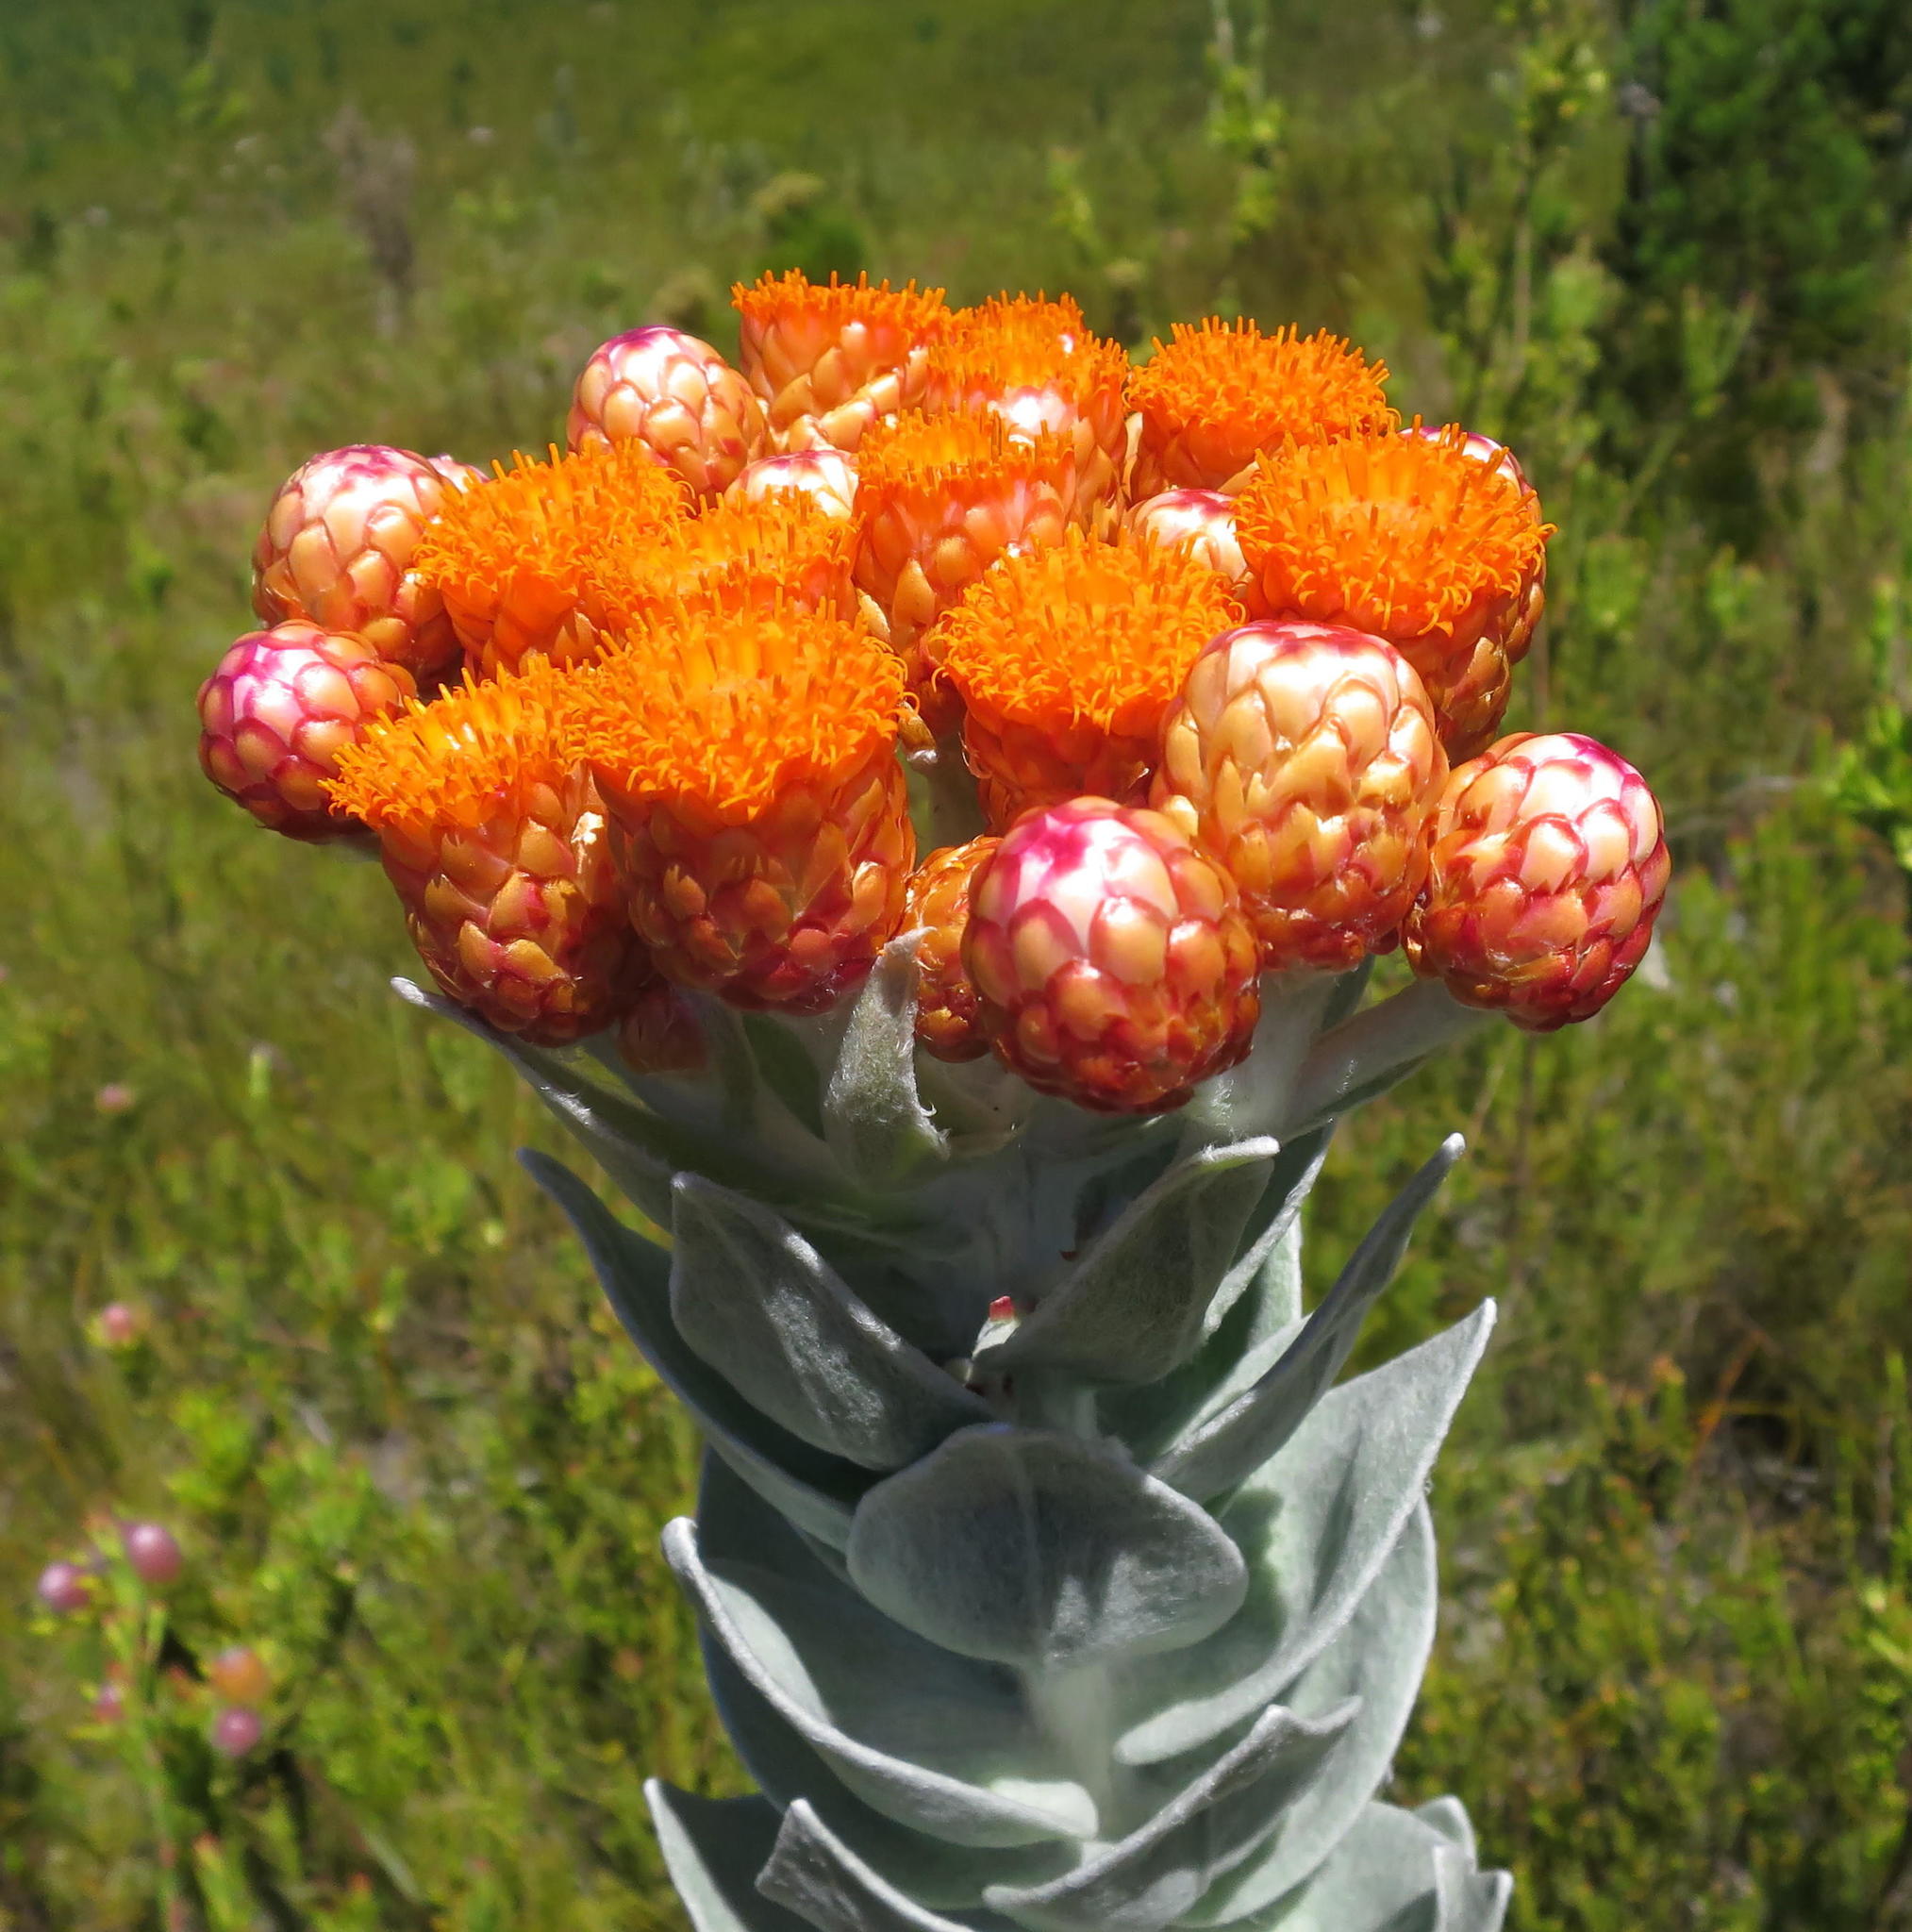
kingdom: Plantae
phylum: Tracheophyta
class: Magnoliopsida
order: Asterales
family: Asteraceae
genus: Syncarpha
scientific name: Syncarpha eximia
